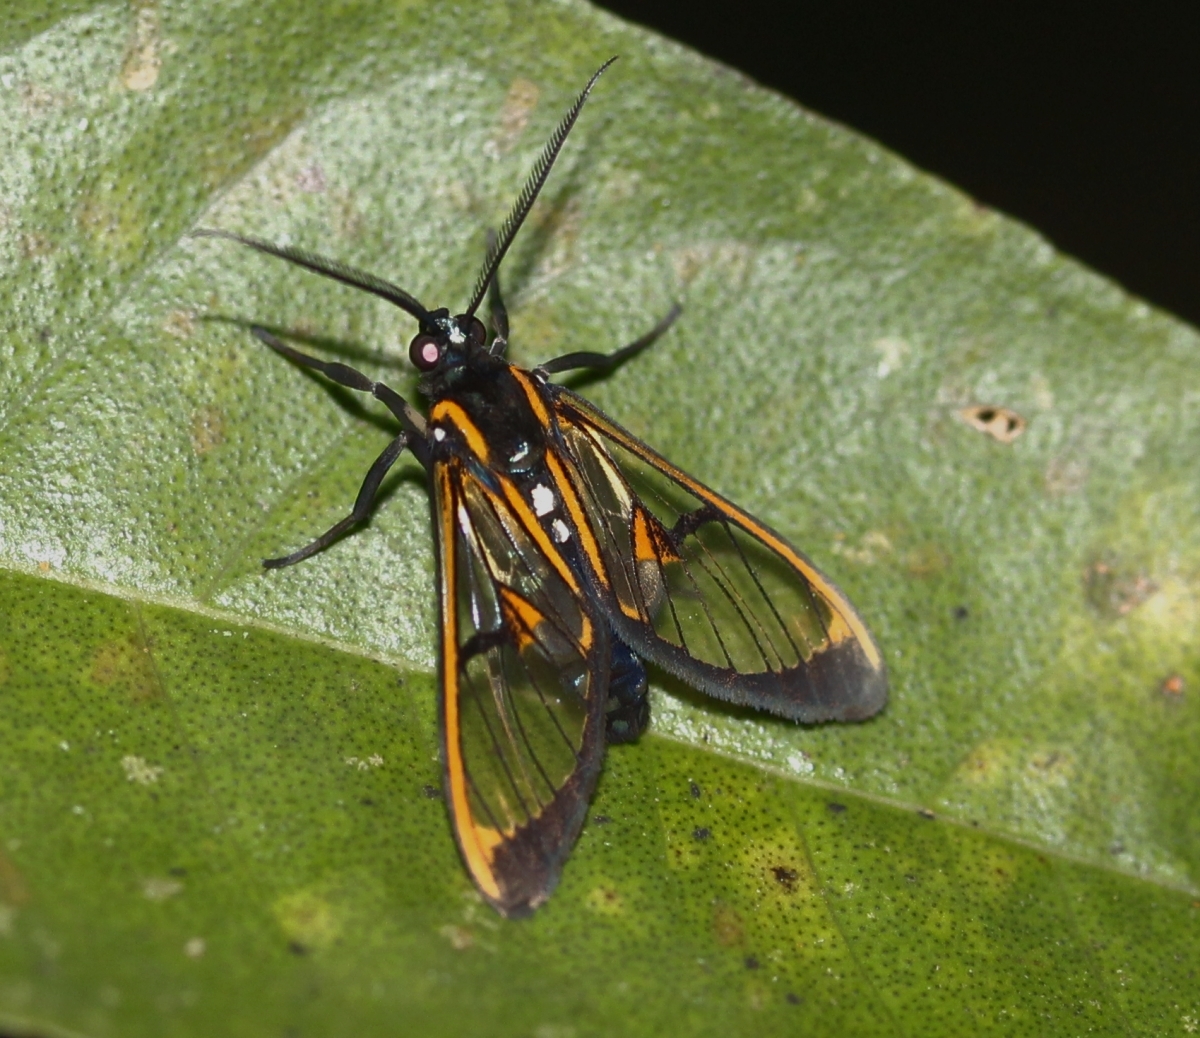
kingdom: Animalia
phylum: Arthropoda
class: Insecta
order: Lepidoptera
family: Erebidae
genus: Cosmosoma
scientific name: Cosmosoma joavana
